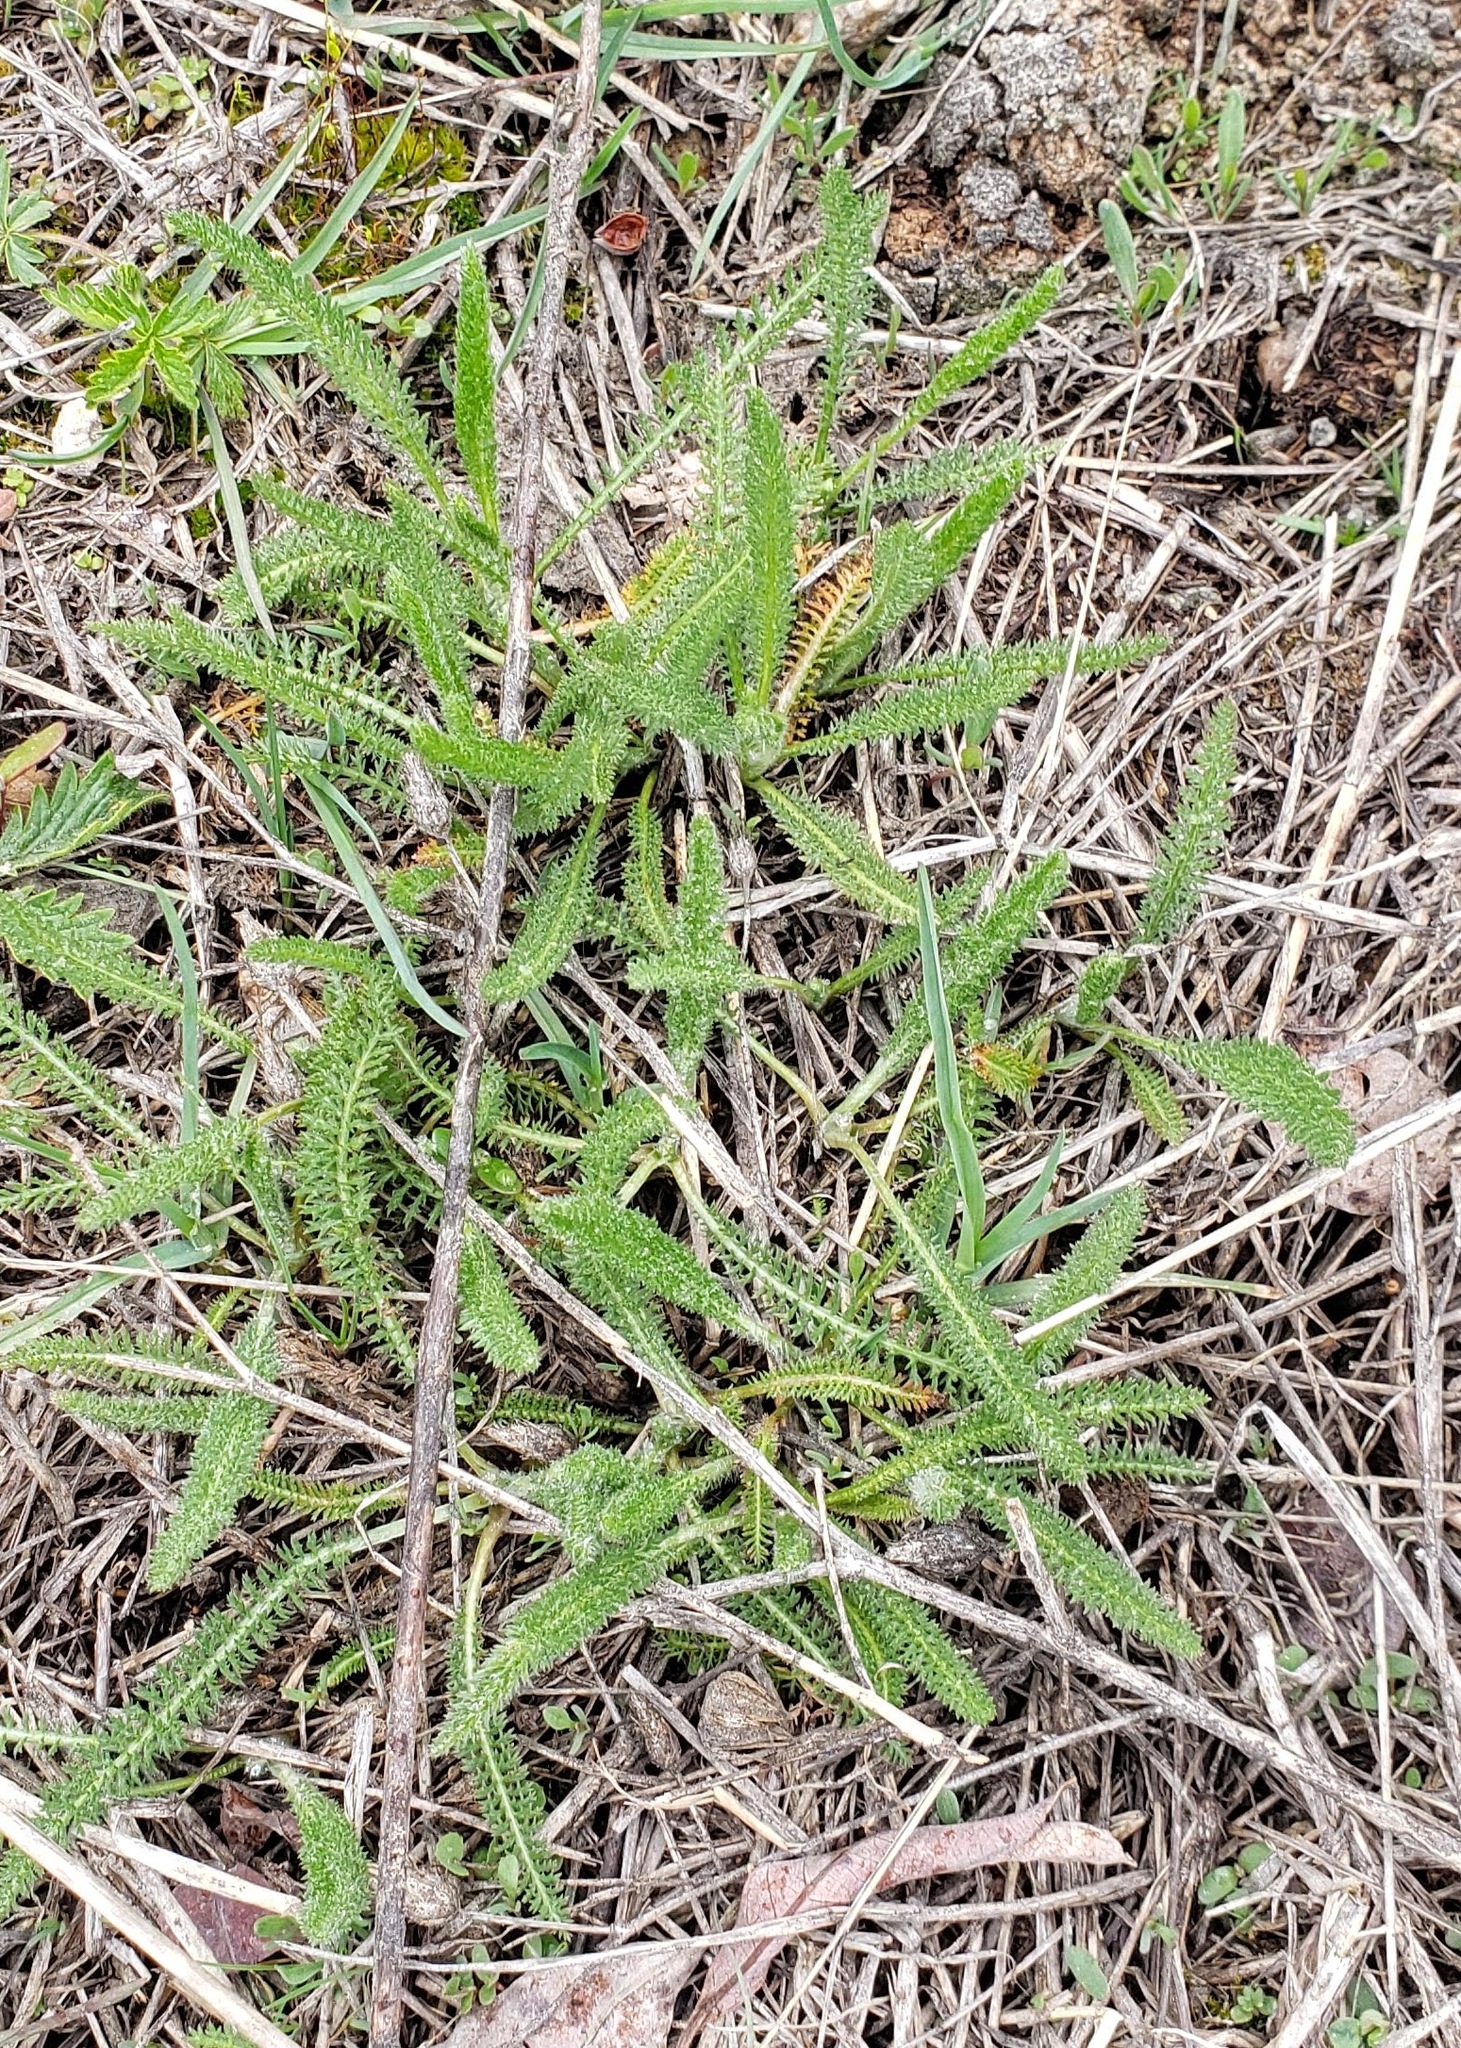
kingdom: Plantae
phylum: Tracheophyta
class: Magnoliopsida
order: Asterales
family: Asteraceae
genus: Achillea
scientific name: Achillea millefolium
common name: Yarrow
